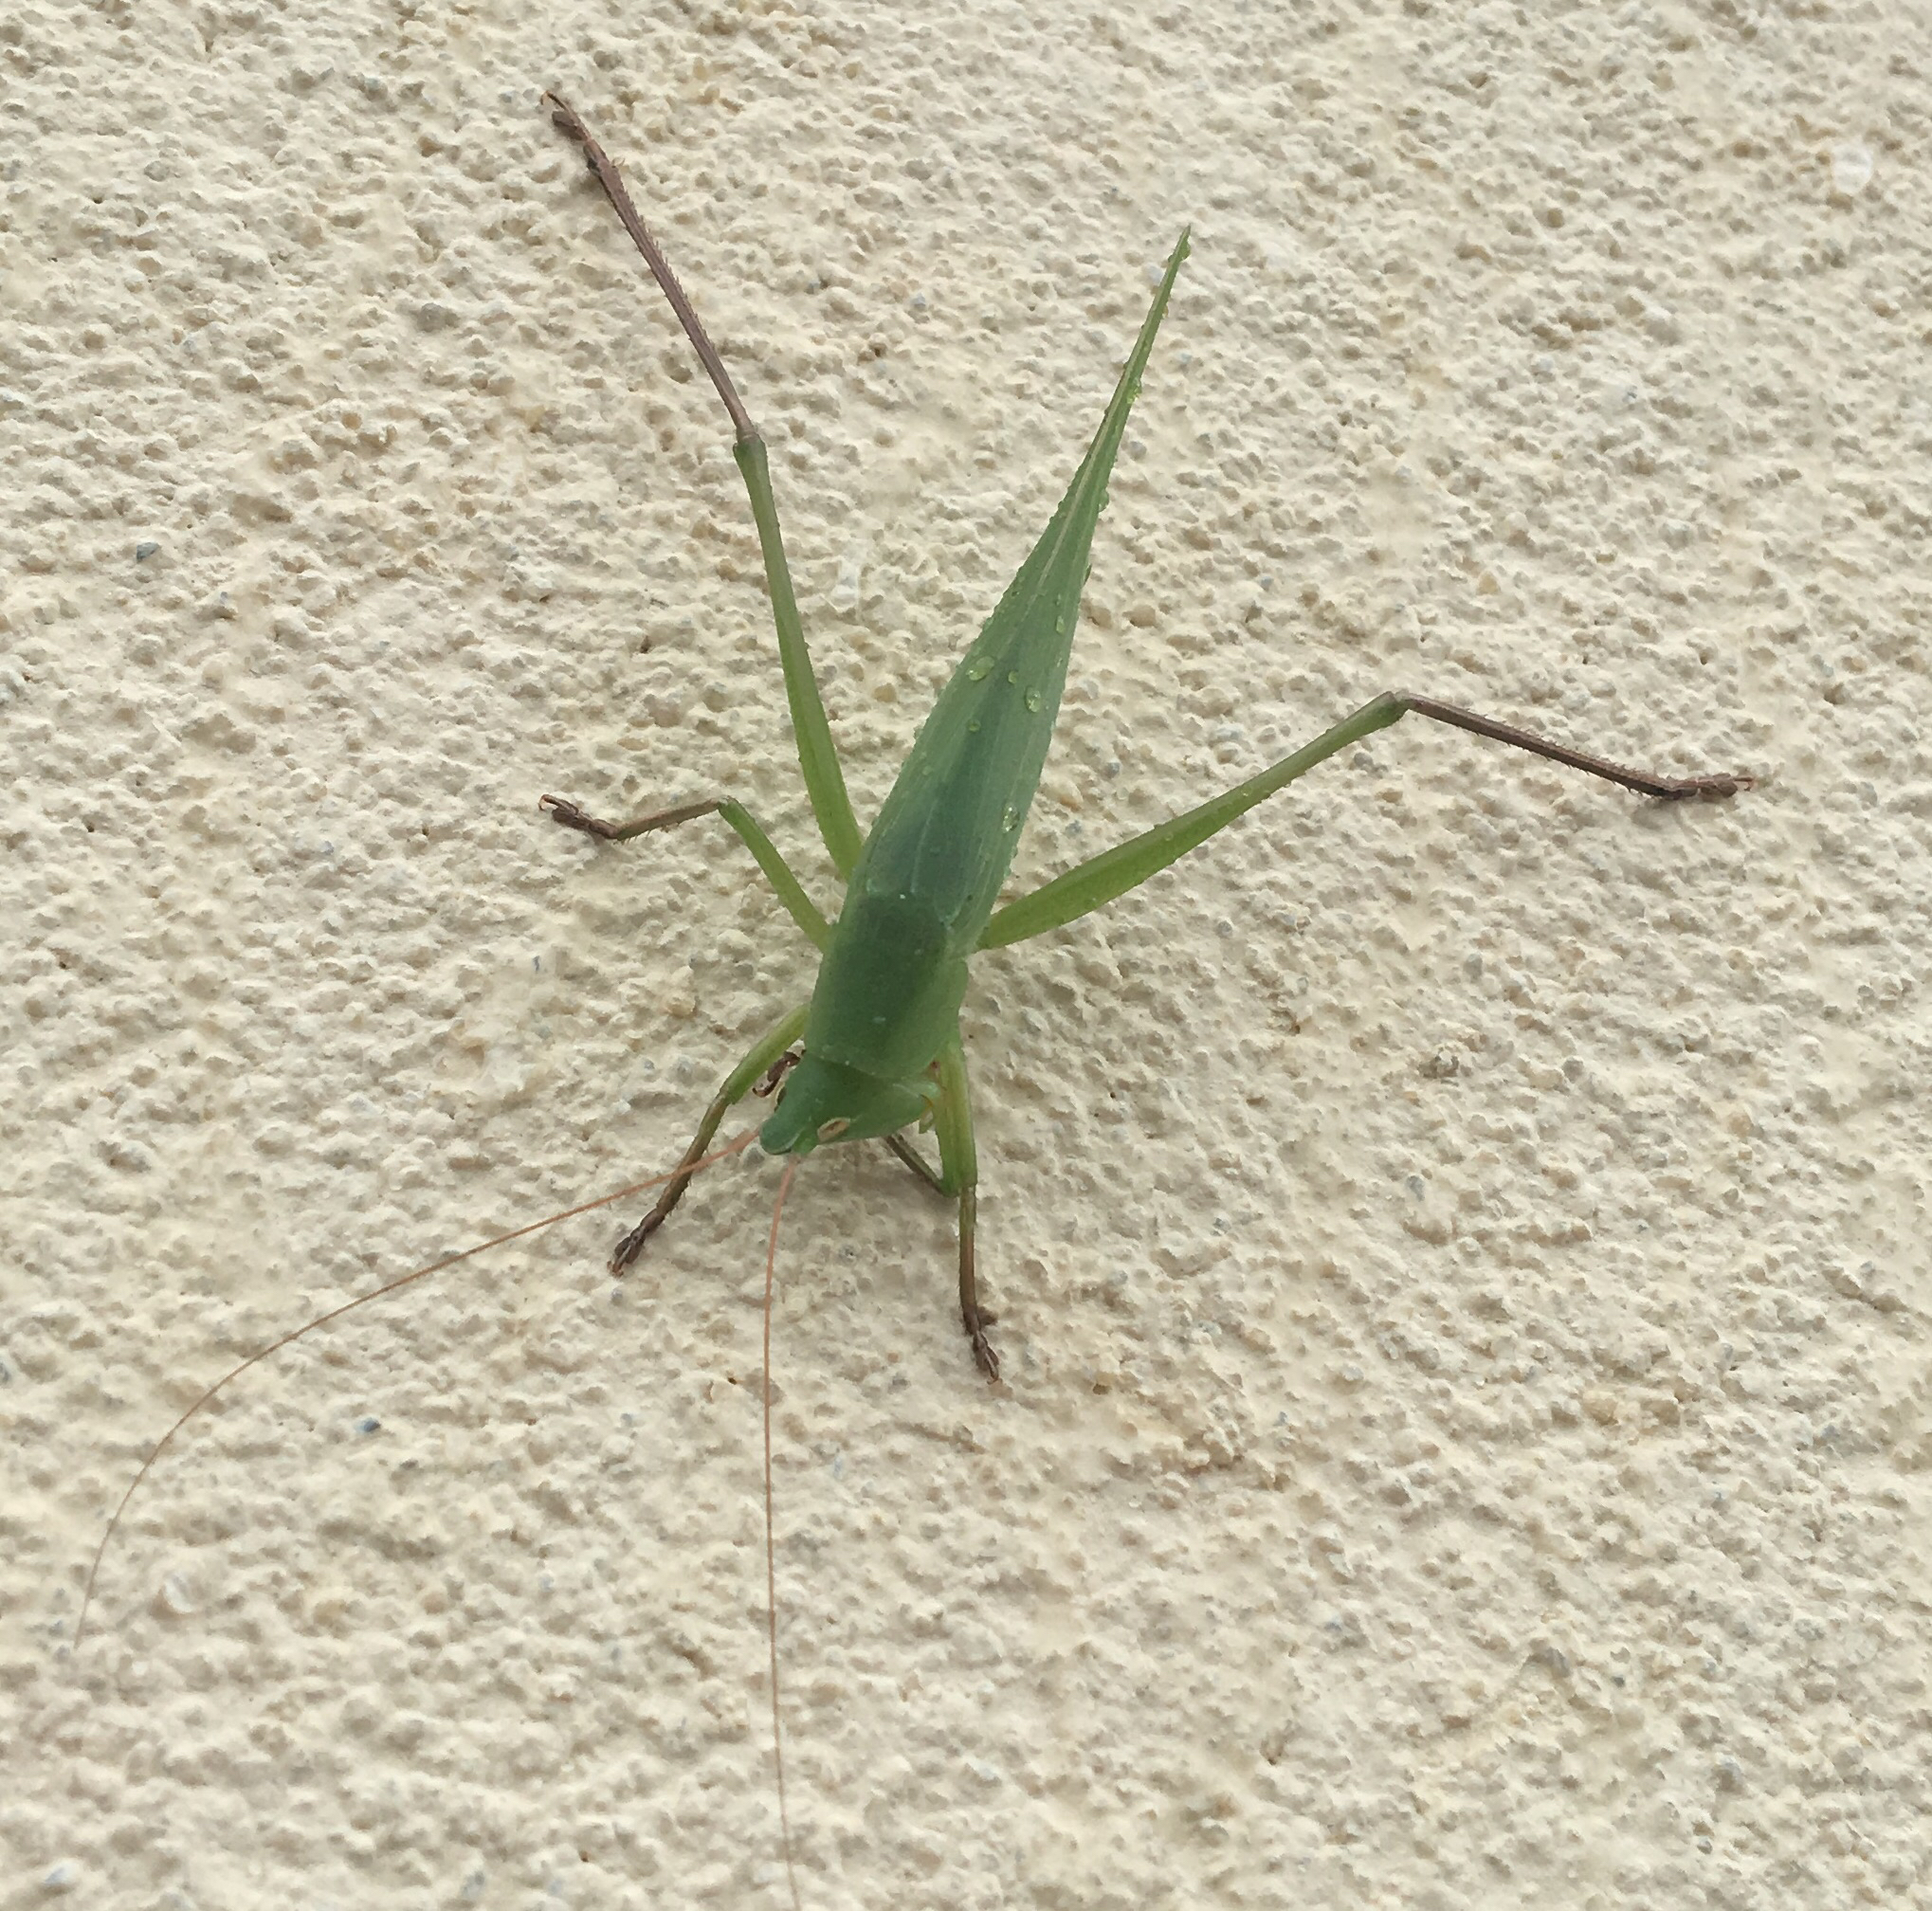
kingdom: Animalia
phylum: Arthropoda
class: Insecta
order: Orthoptera
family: Tettigoniidae
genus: Neoconocephalus
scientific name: Neoconocephalus triops
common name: Broad-tipped conehead
